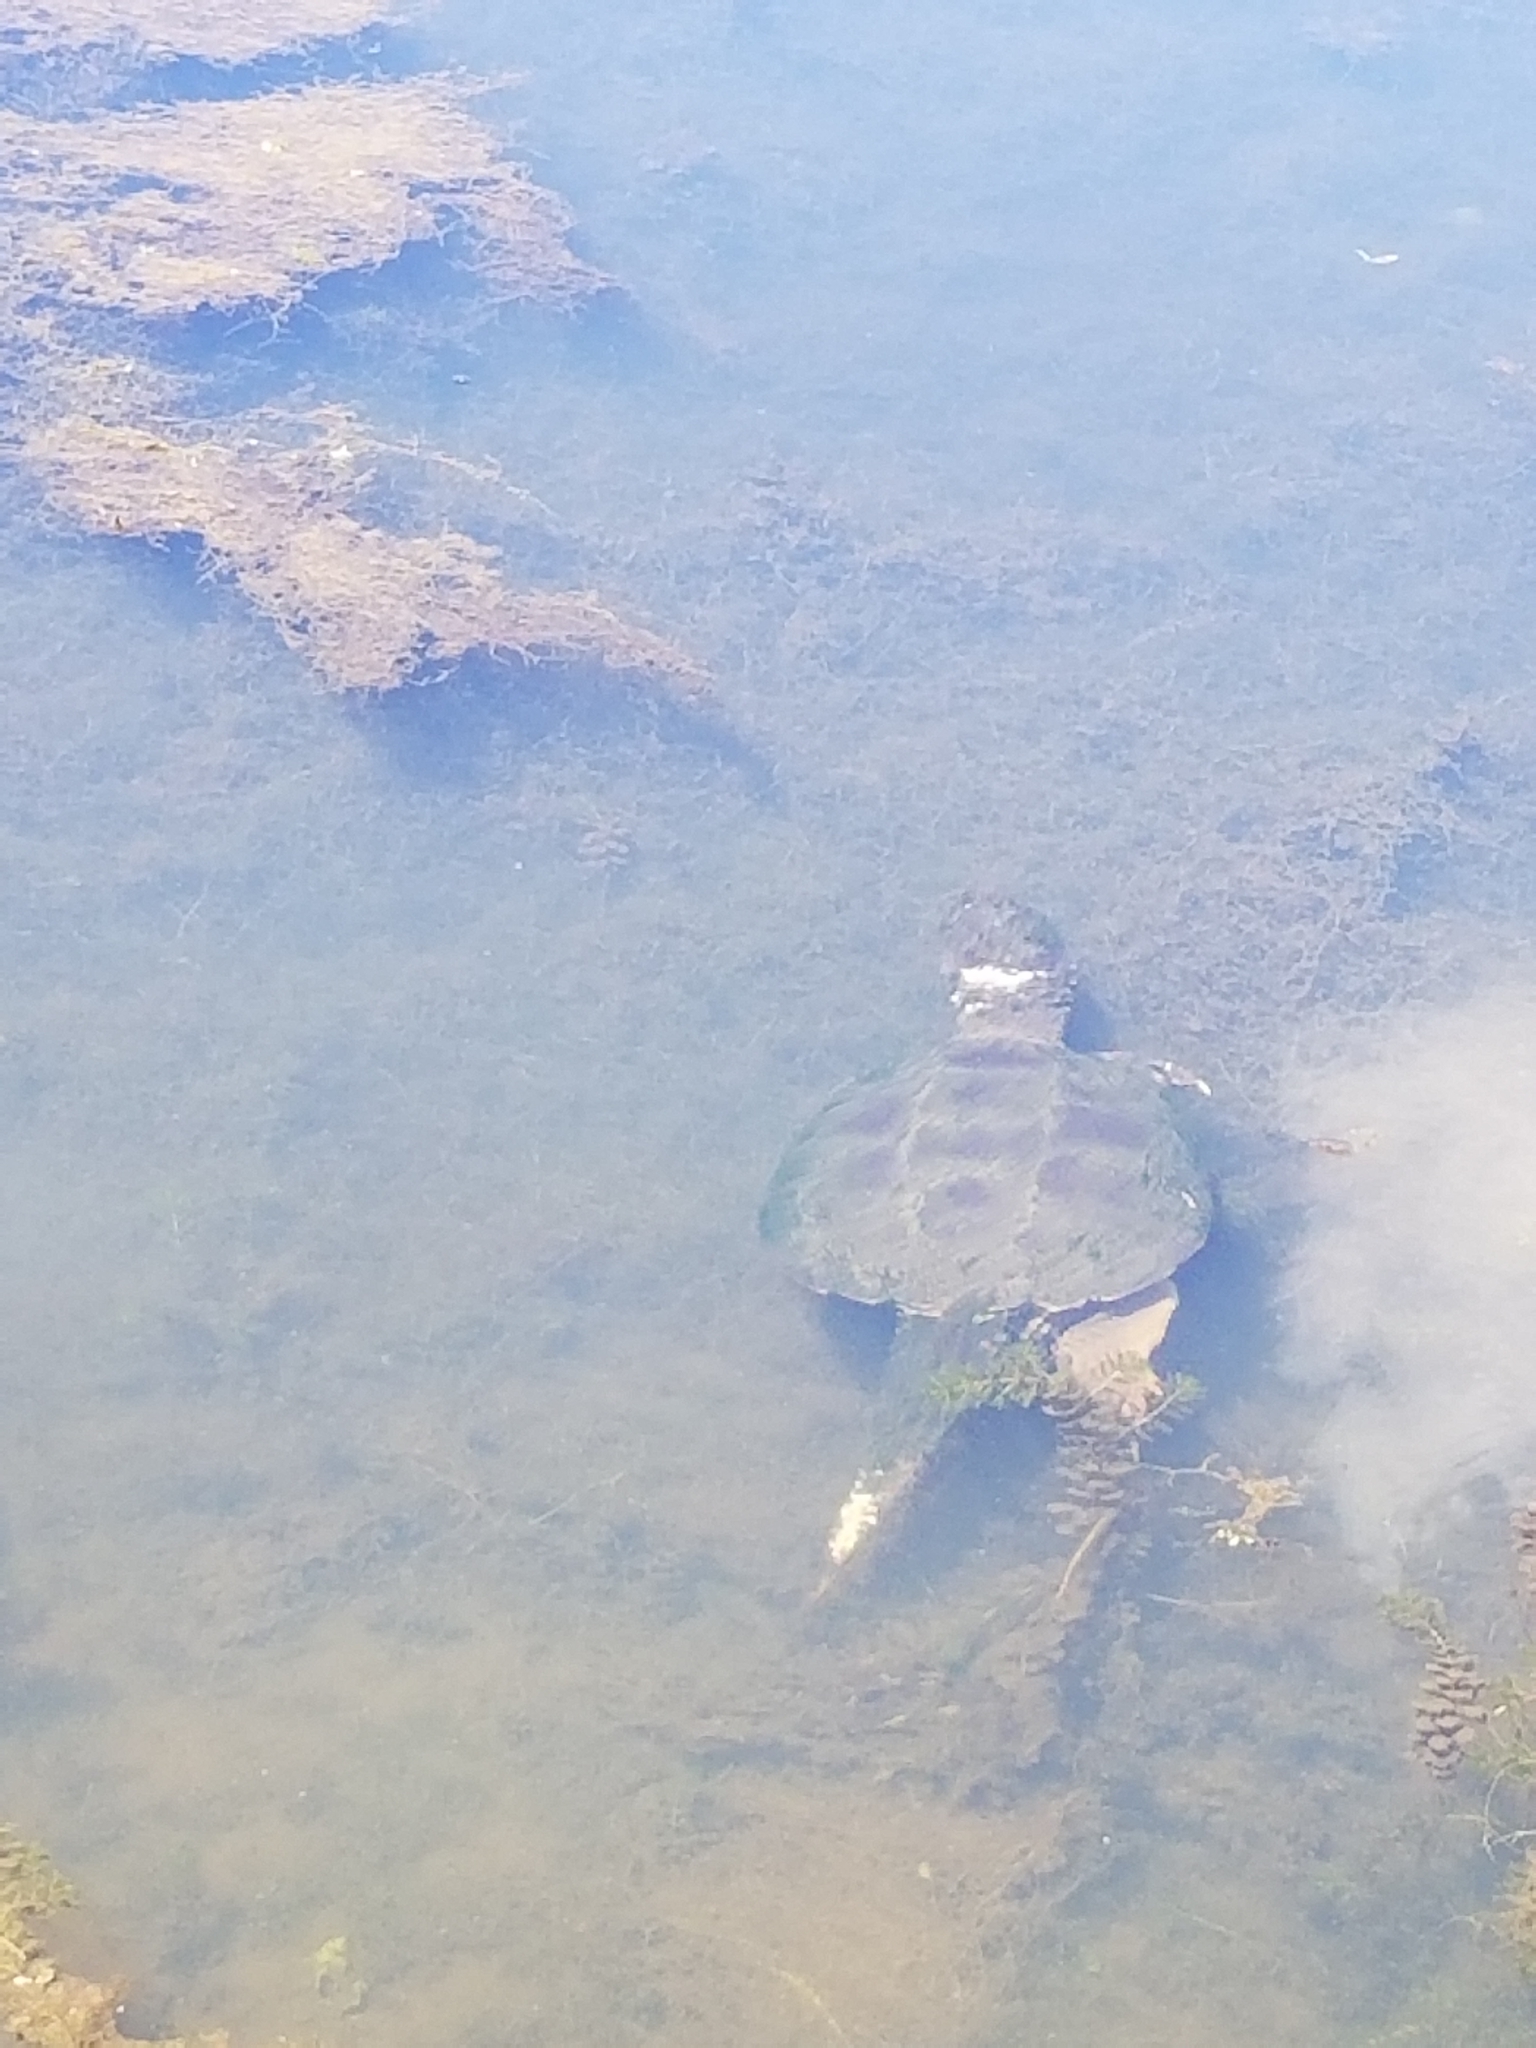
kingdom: Animalia
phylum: Chordata
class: Testudines
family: Chelydridae
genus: Chelydra
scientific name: Chelydra serpentina
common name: Common snapping turtle
